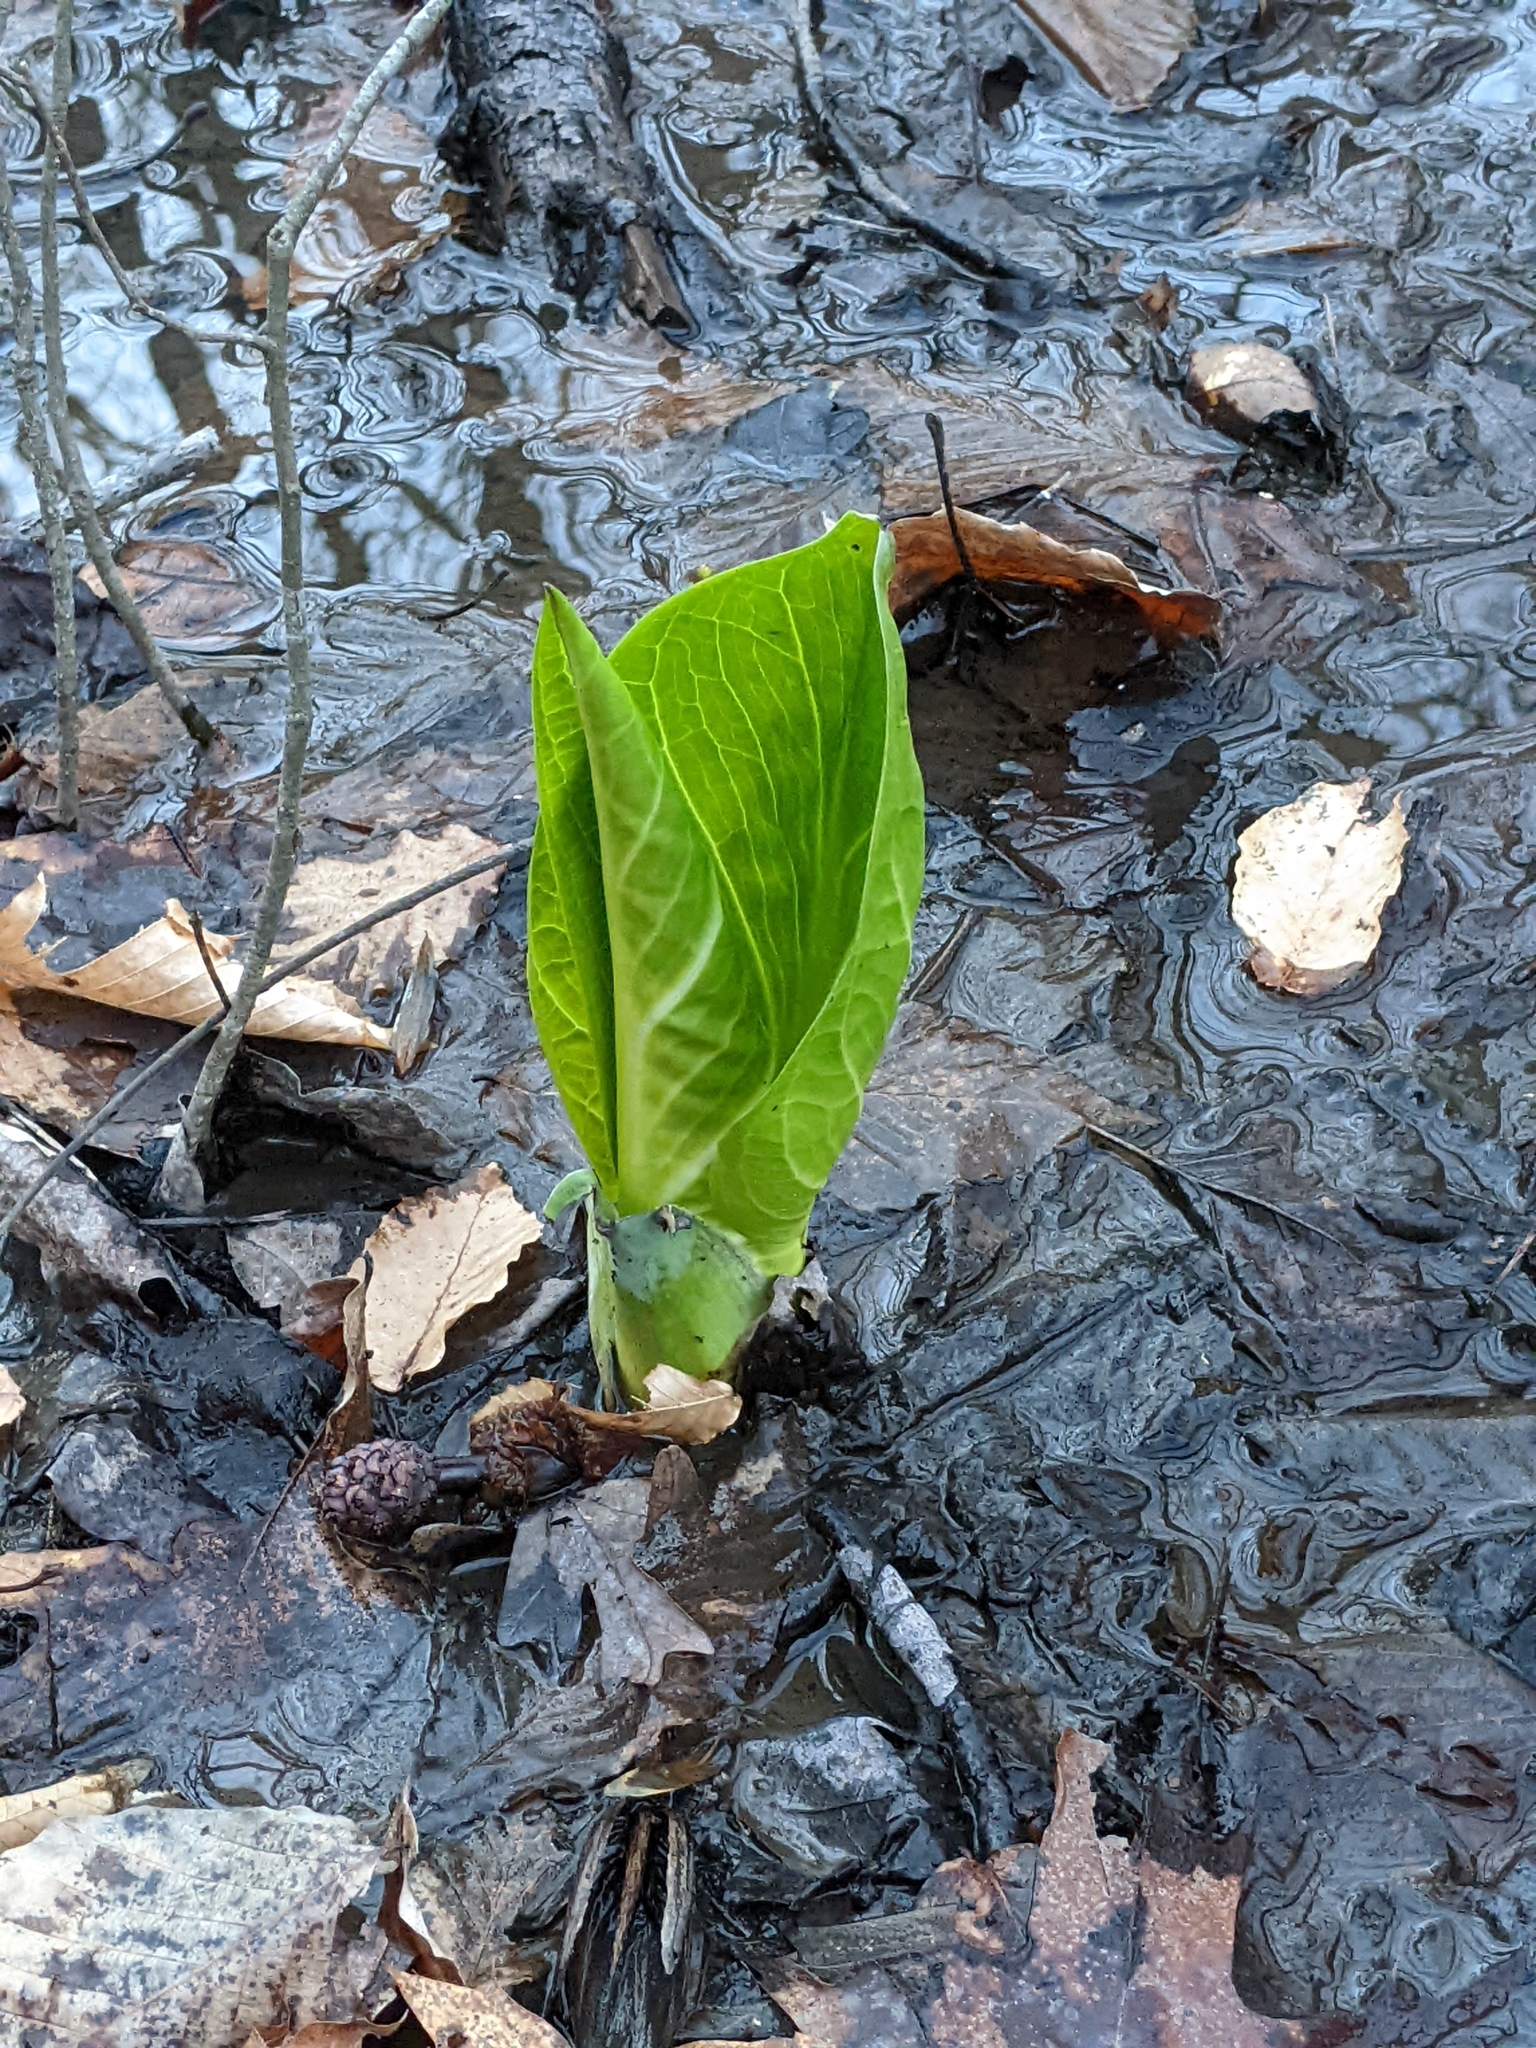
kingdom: Plantae
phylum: Tracheophyta
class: Liliopsida
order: Alismatales
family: Araceae
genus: Symplocarpus
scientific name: Symplocarpus foetidus
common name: Eastern skunk cabbage
